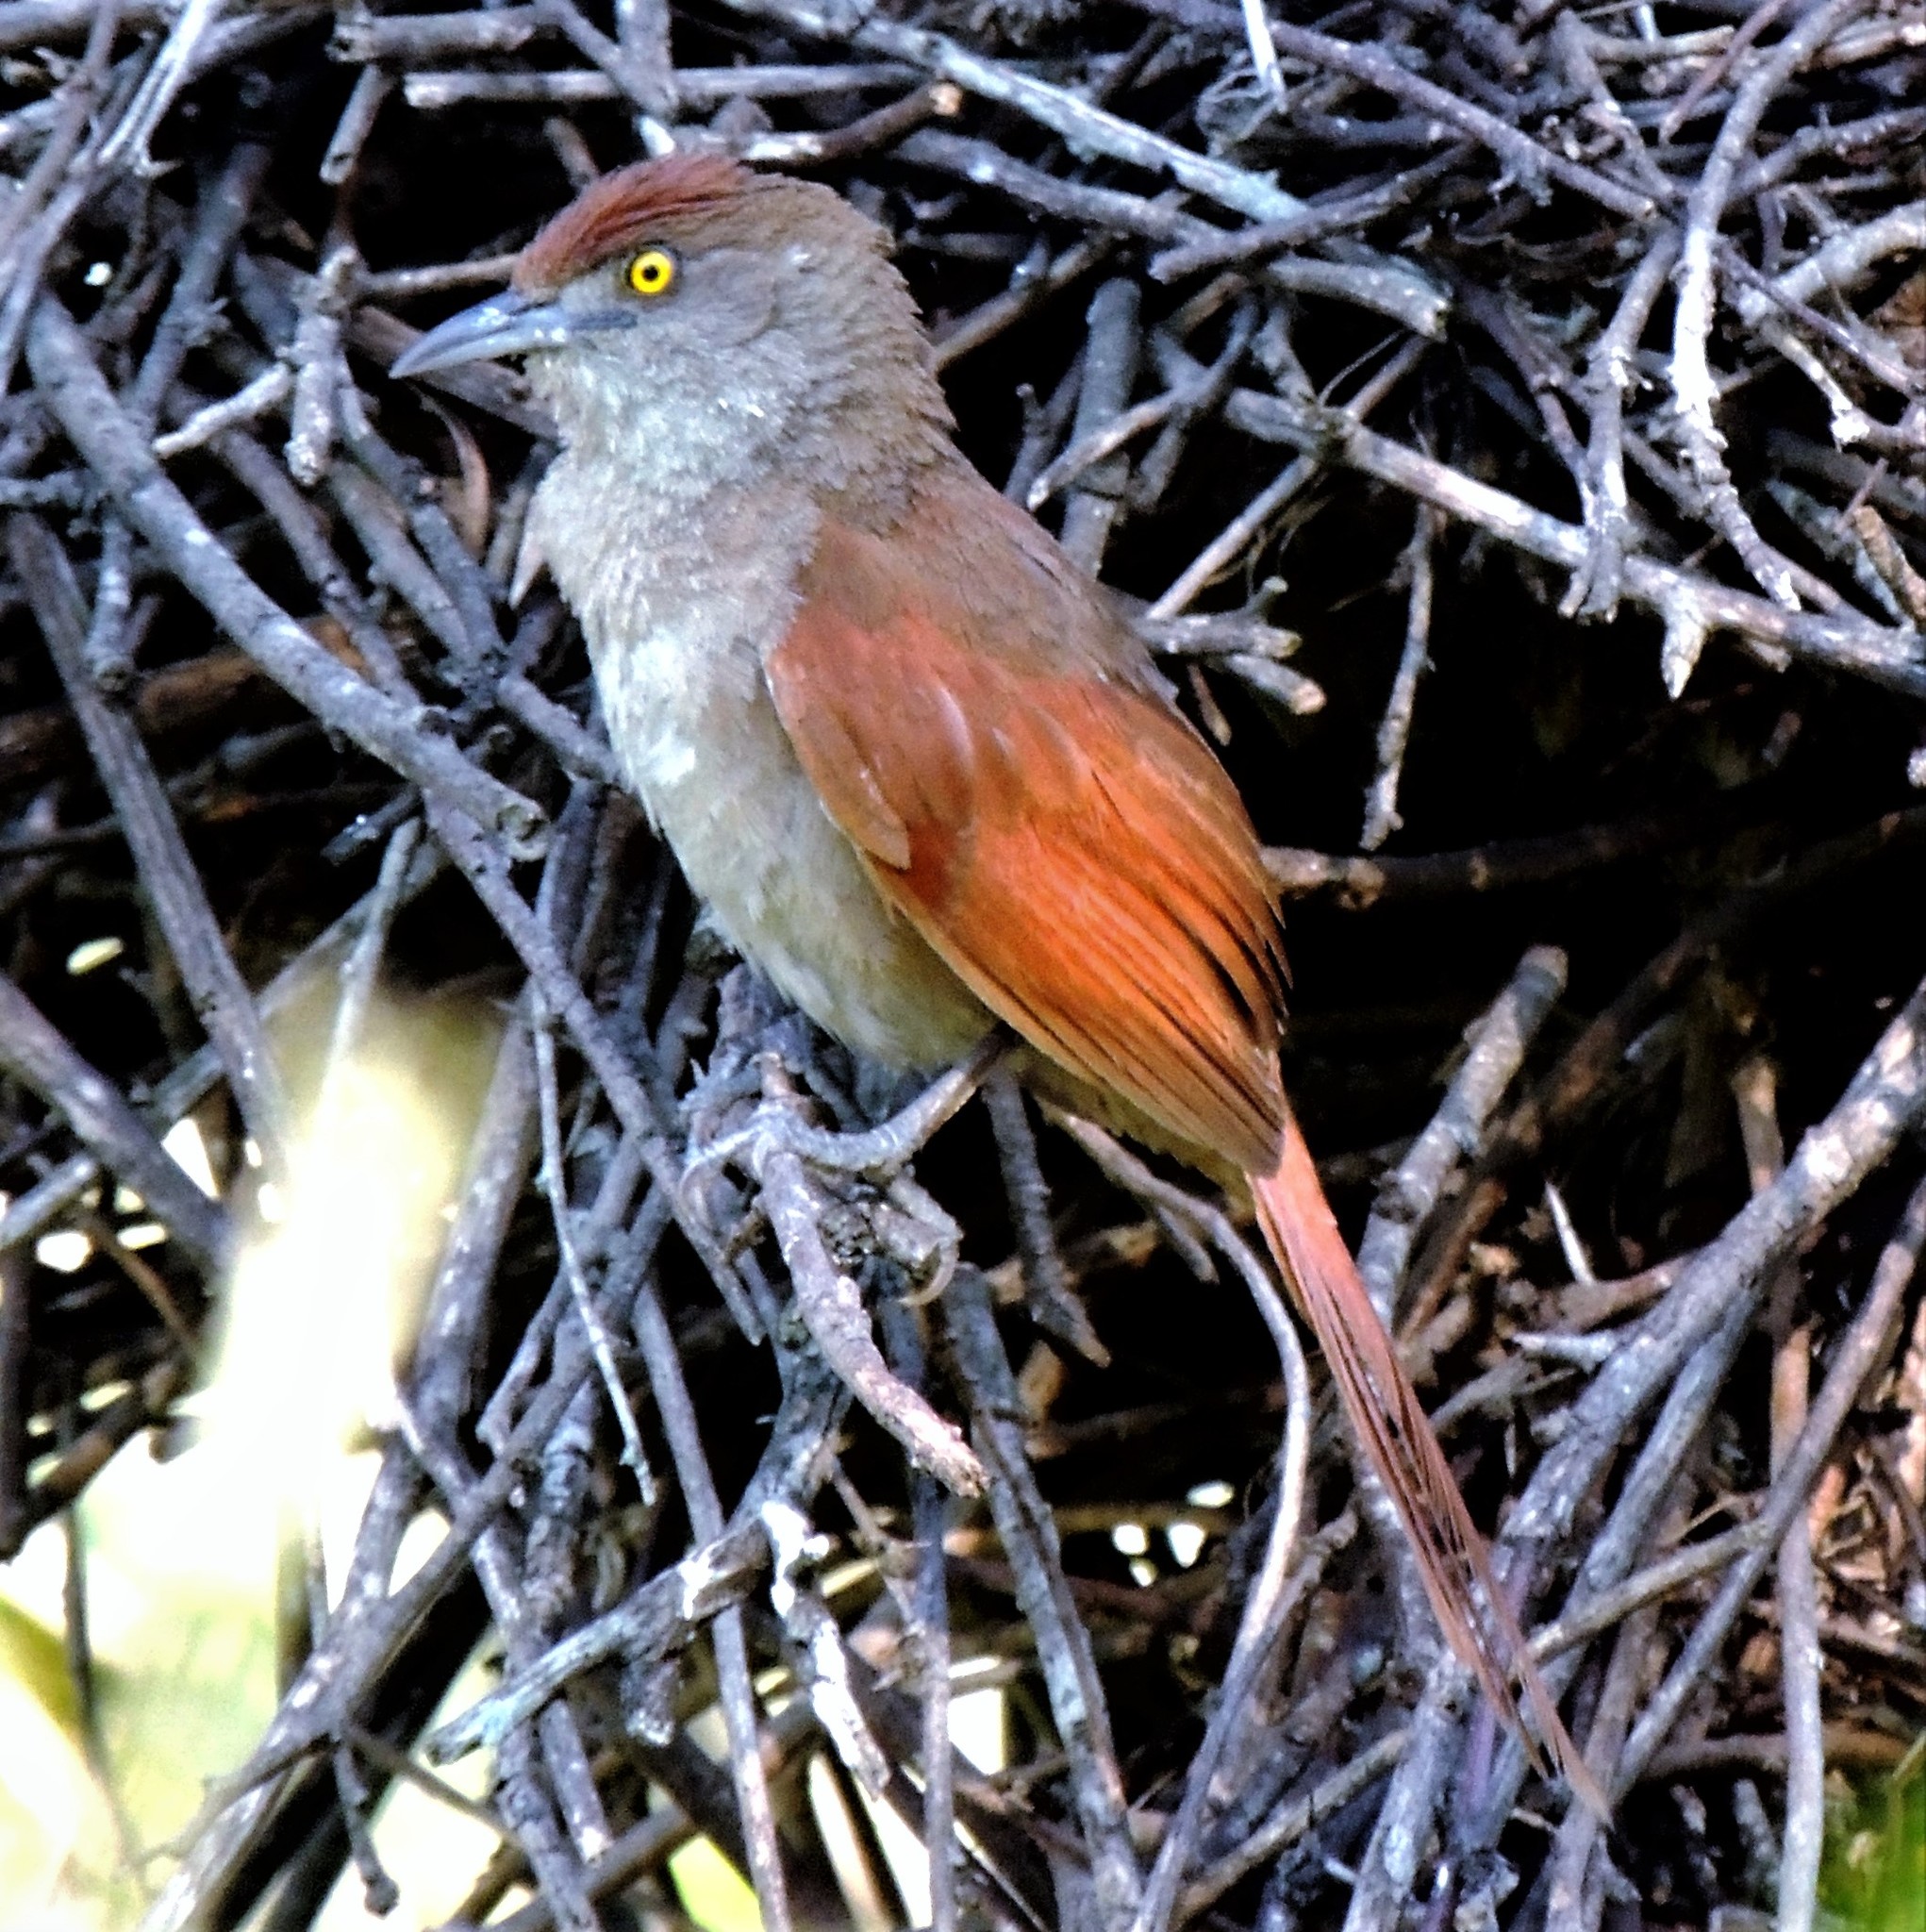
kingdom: Animalia
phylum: Chordata
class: Aves
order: Passeriformes
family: Furnariidae
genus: Phacellodomus
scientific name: Phacellodomus ruber
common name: Greater thornbird
